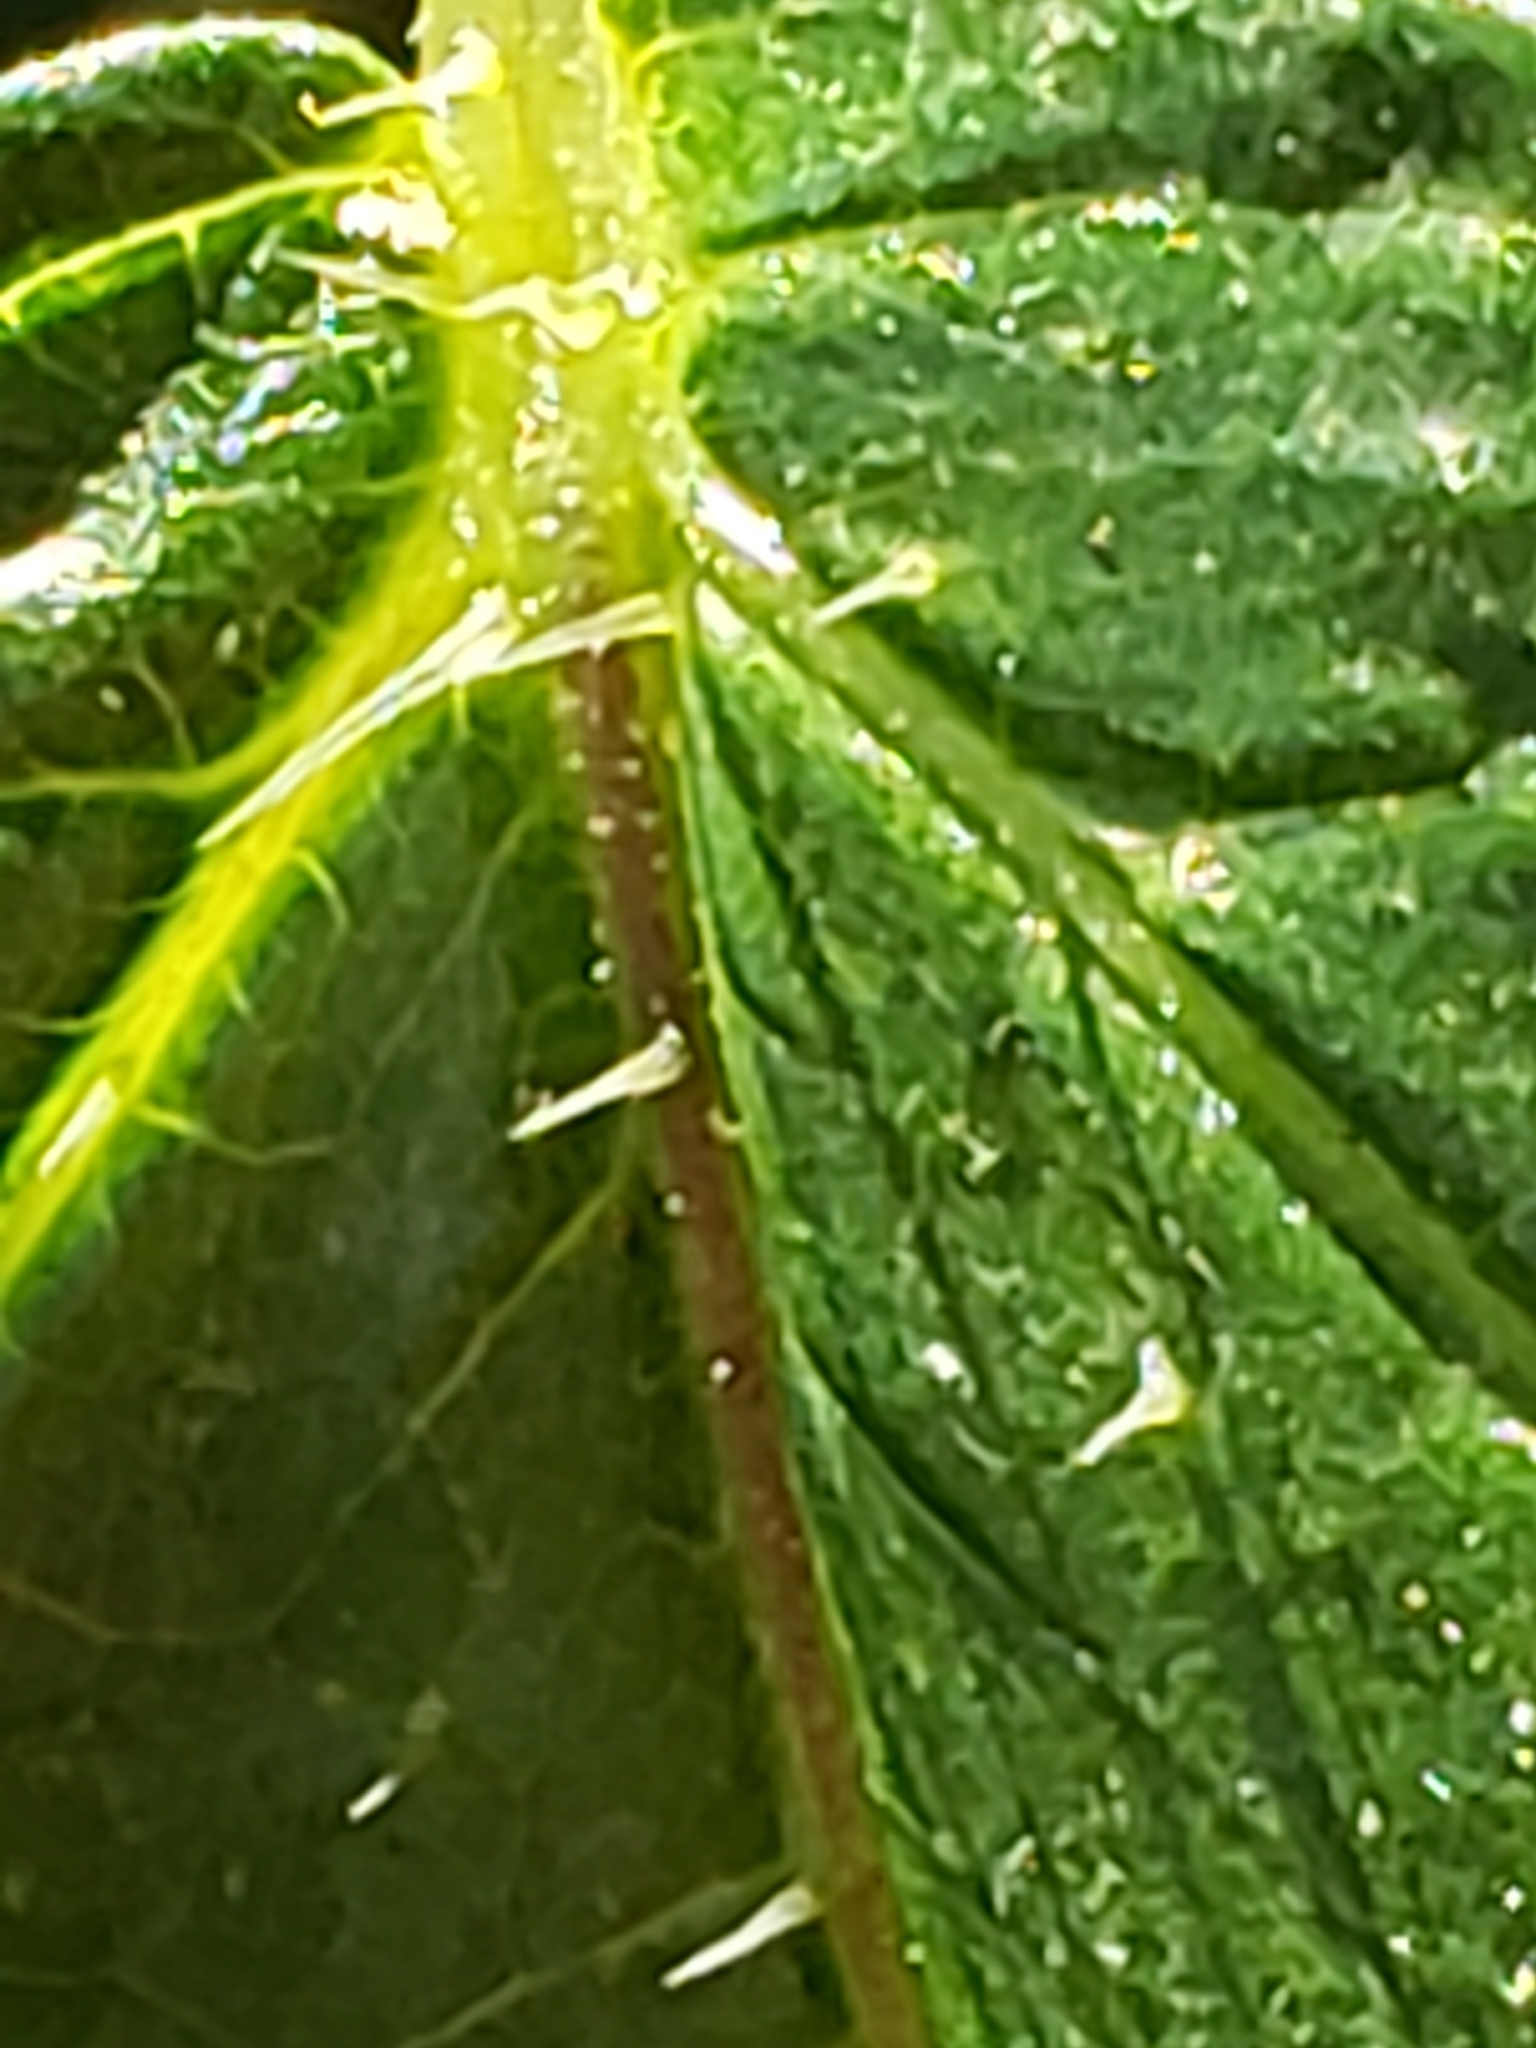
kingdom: Animalia
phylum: Arthropoda
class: Insecta
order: Diptera
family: Agromyzidae
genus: Agromyza
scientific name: Agromyza pseudoreptans
